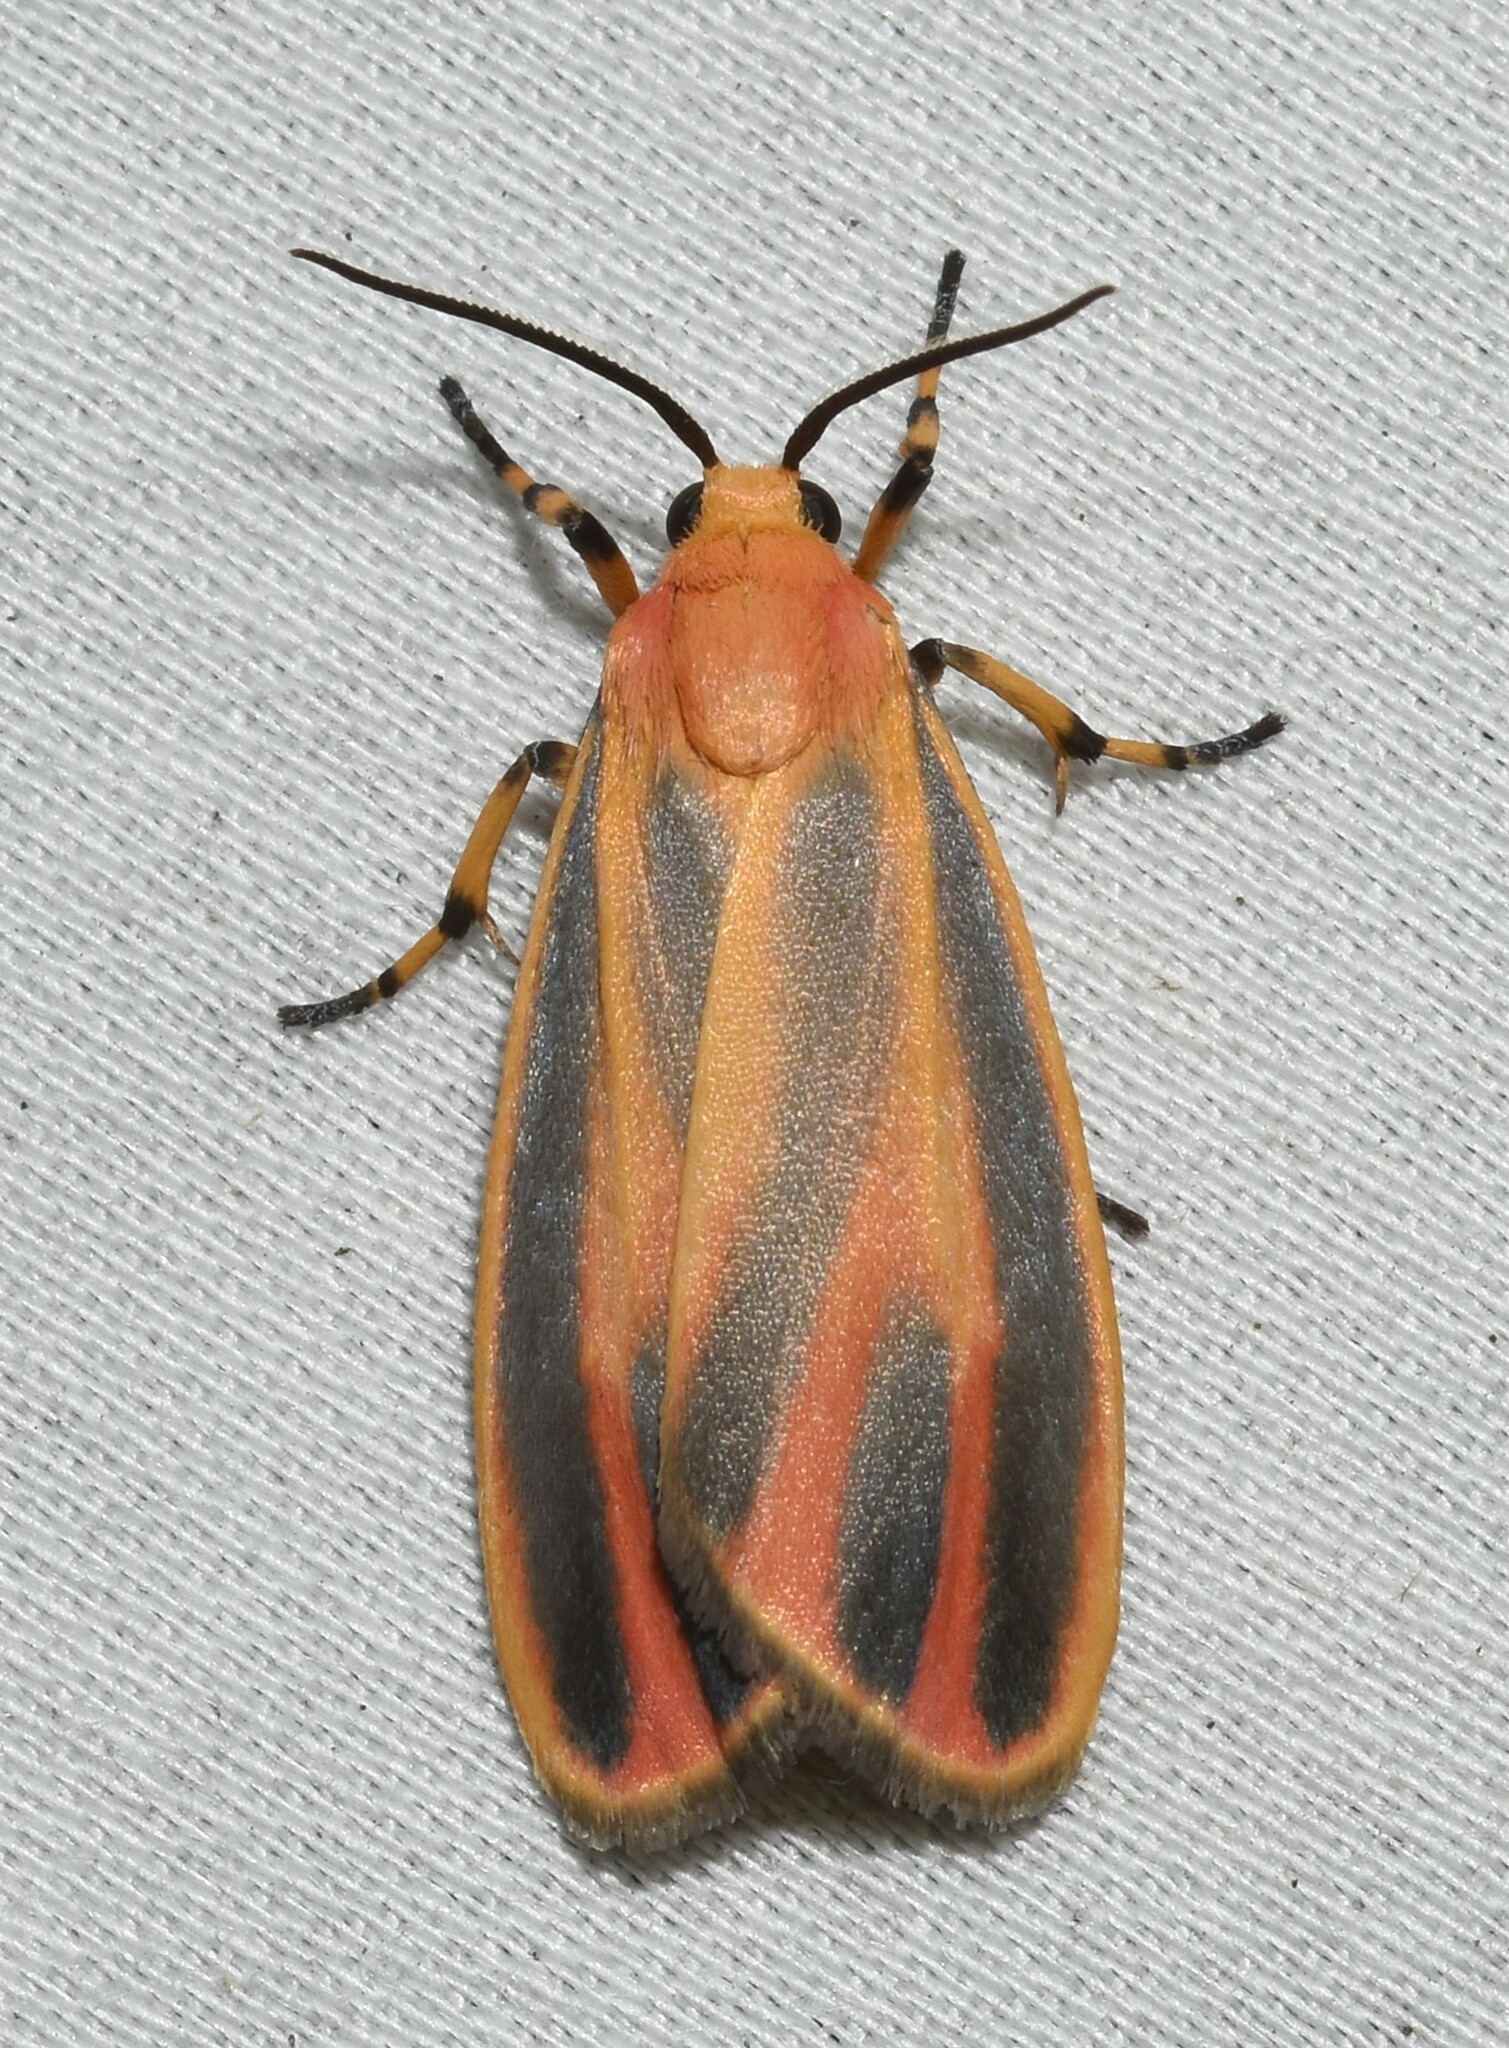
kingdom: Animalia
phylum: Arthropoda
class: Insecta
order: Lepidoptera
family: Erebidae
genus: Hypoprepia
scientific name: Hypoprepia fucosa
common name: Painted lichen moth
